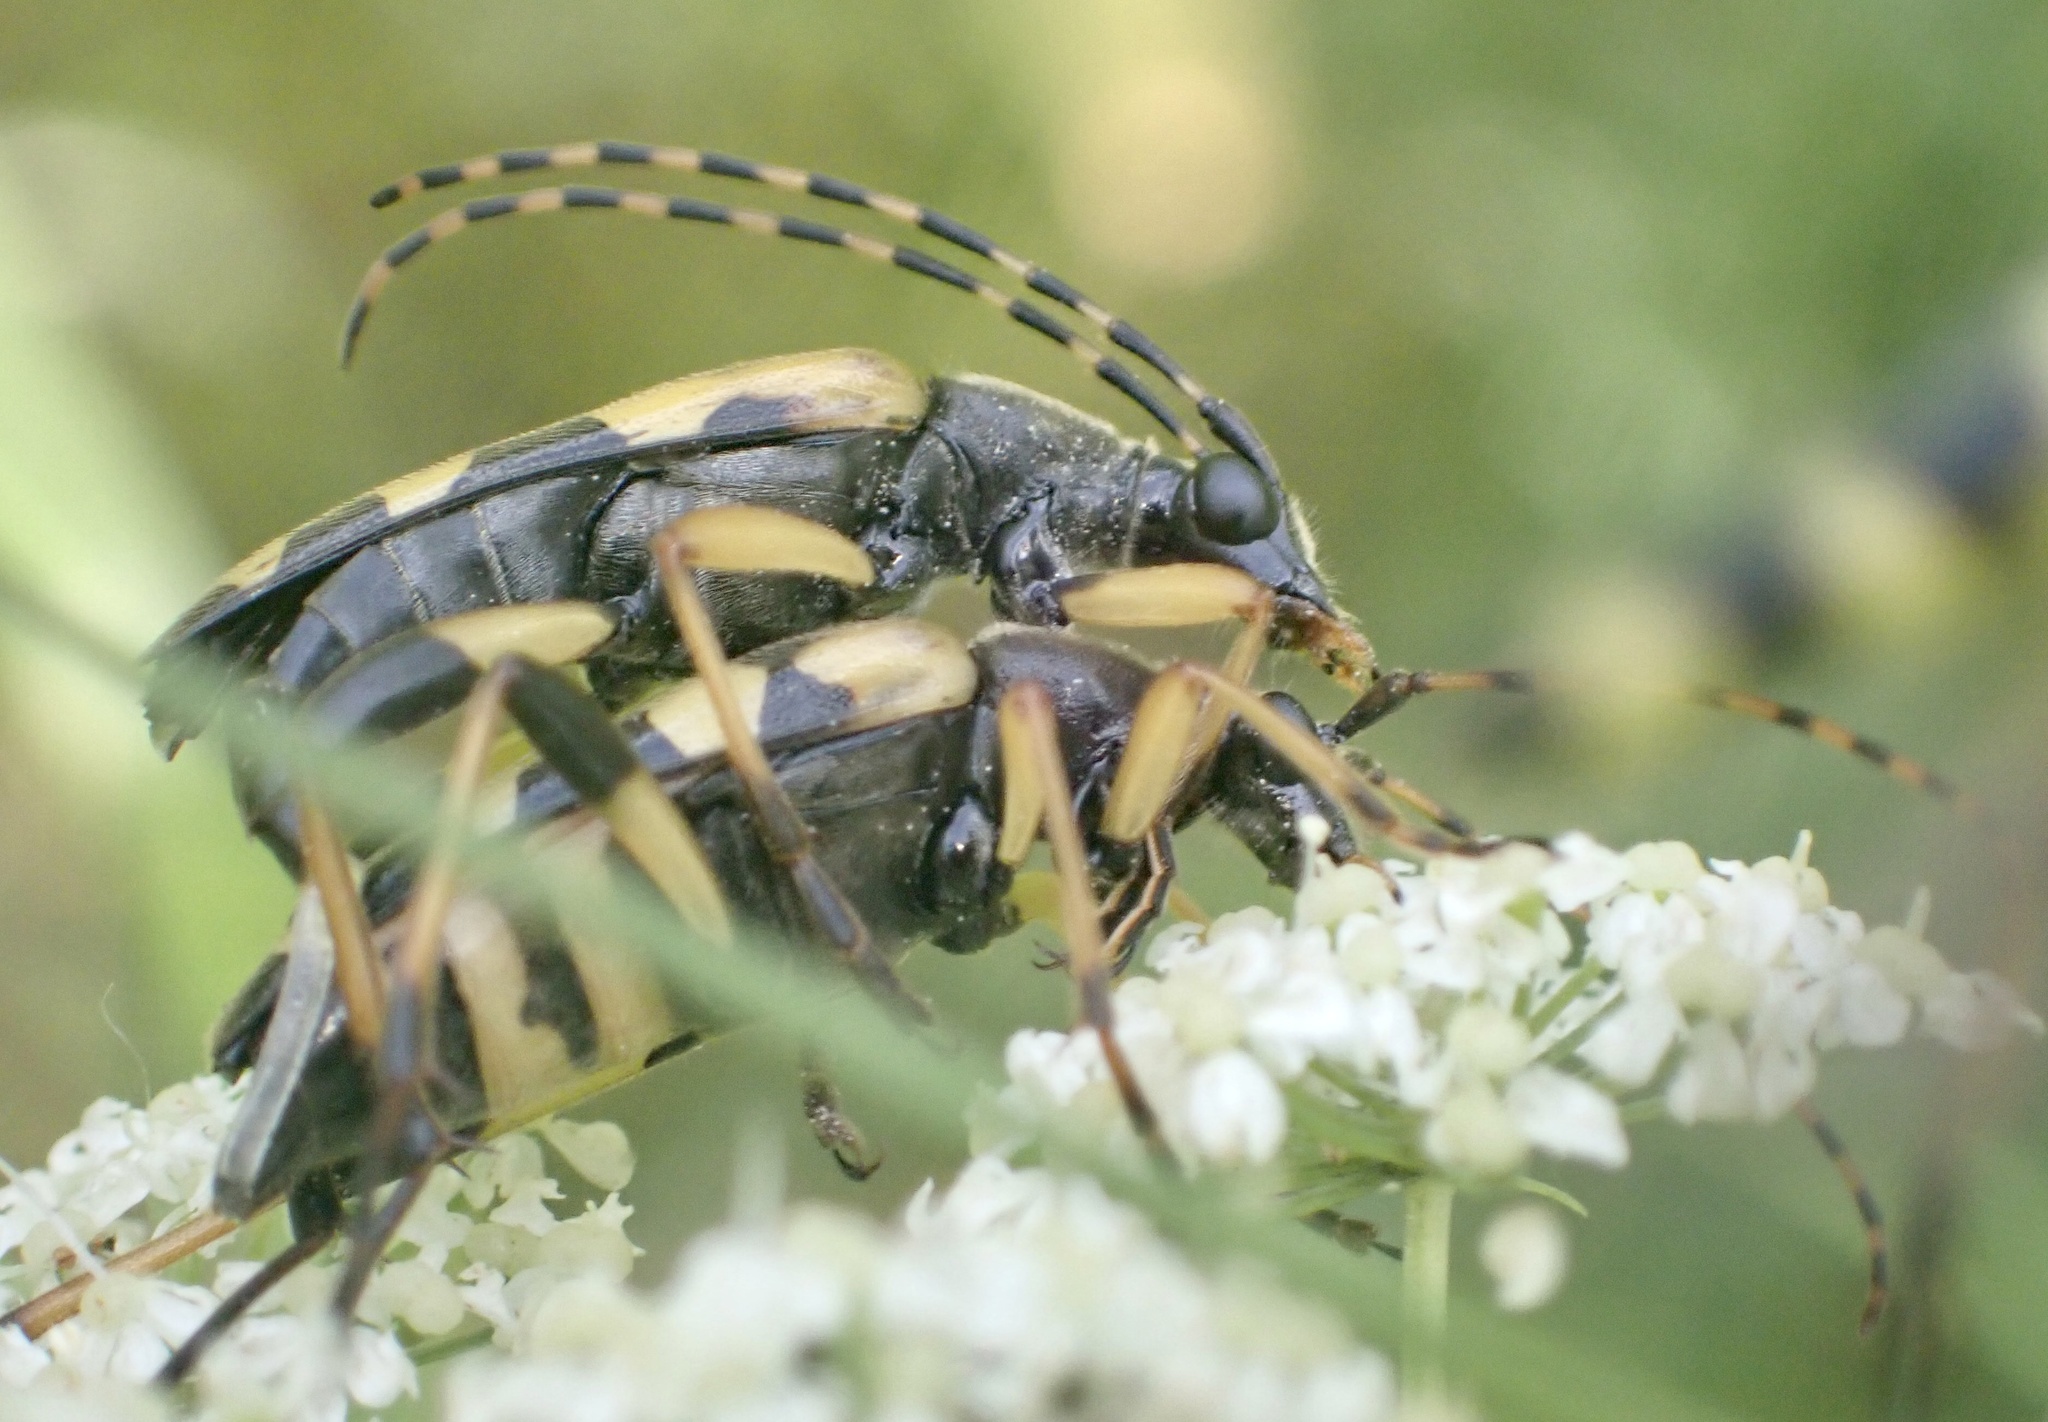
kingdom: Animalia
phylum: Arthropoda
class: Insecta
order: Coleoptera
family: Cerambycidae
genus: Rutpela
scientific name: Rutpela maculata
